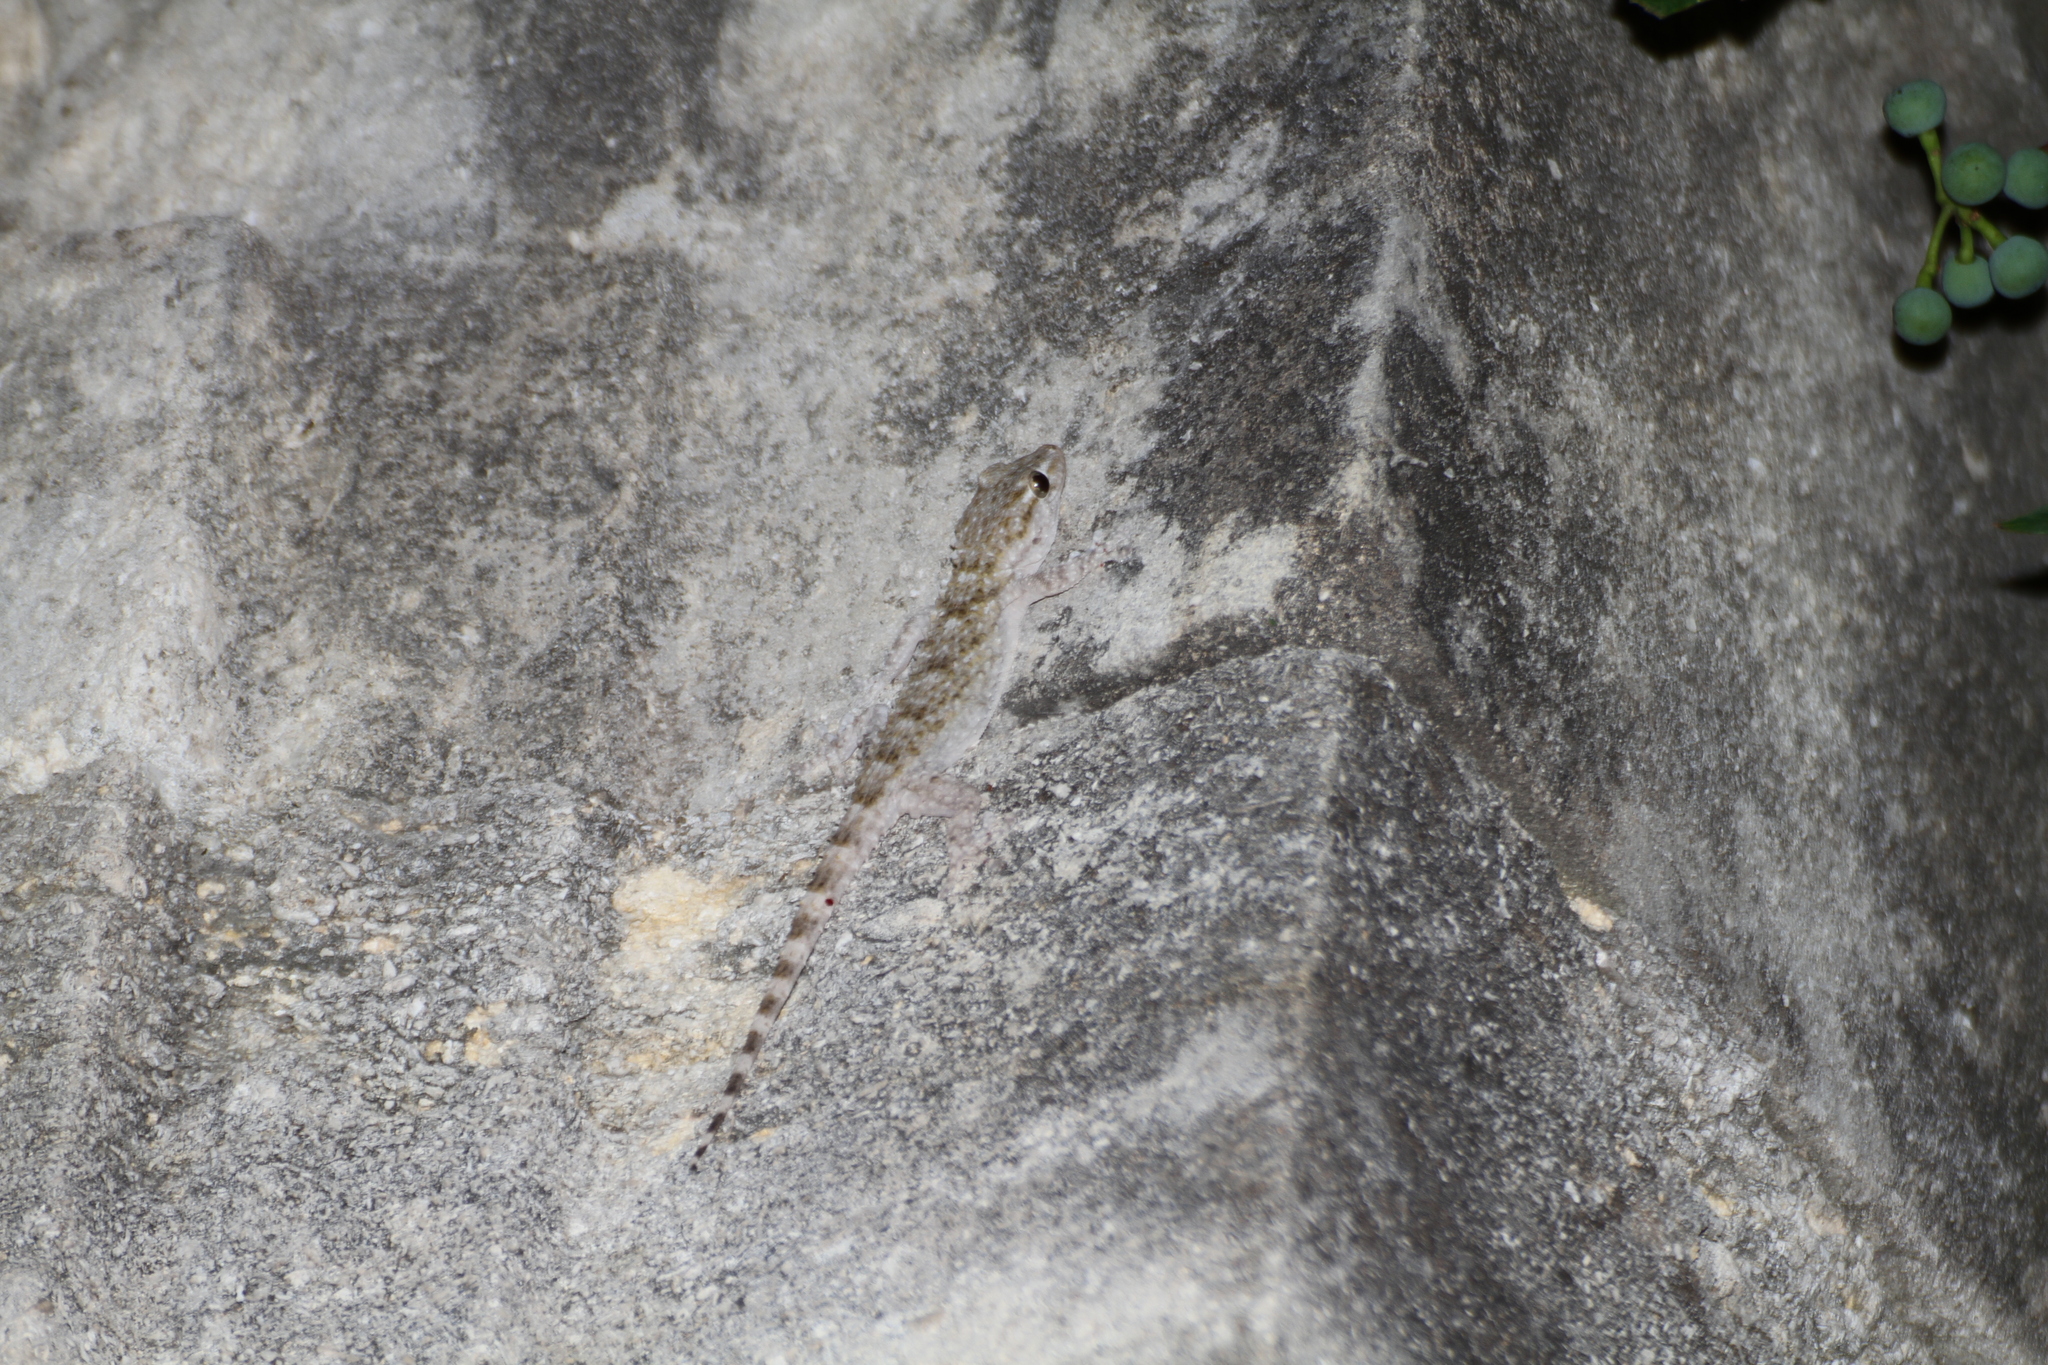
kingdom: Animalia
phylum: Chordata
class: Squamata
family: Phyllodactylidae
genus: Tarentola
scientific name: Tarentola mauritanica
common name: Moorish gecko
